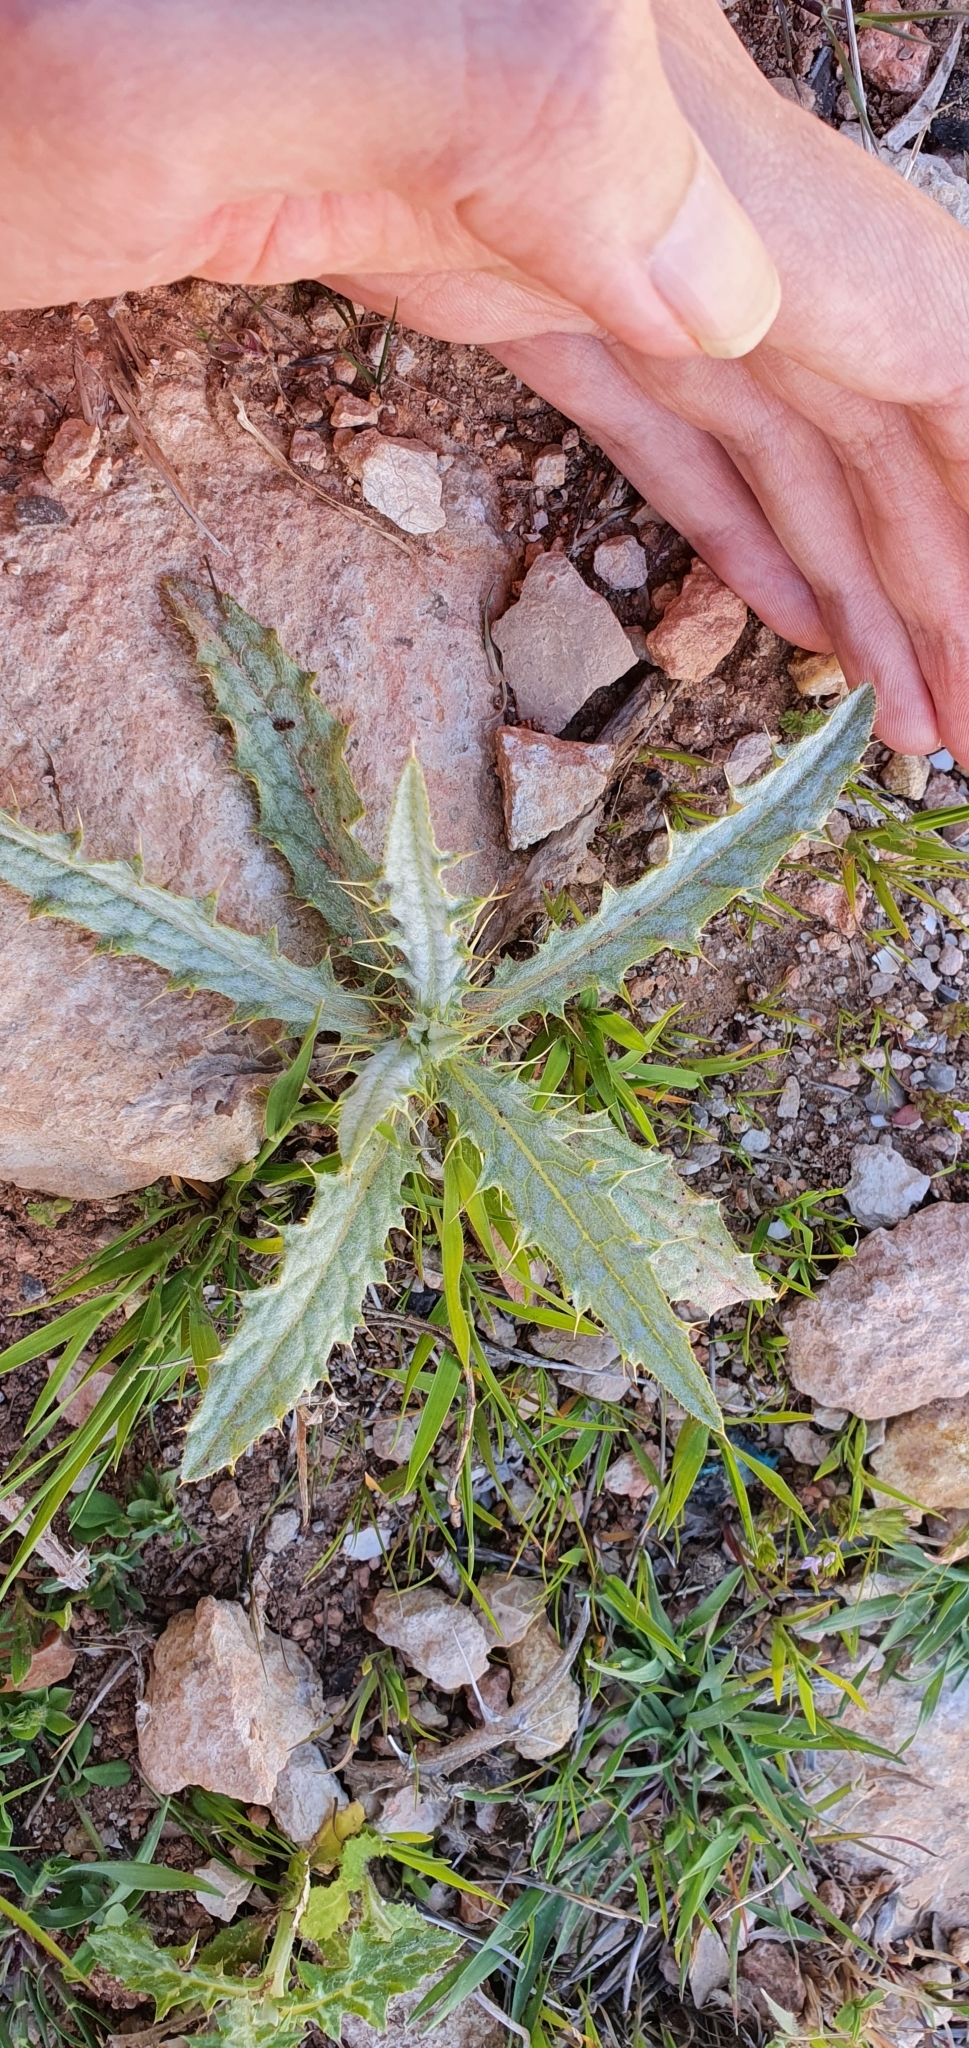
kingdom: Plantae
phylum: Tracheophyta
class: Magnoliopsida
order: Asterales
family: Asteraceae
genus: Picnomon
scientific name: Picnomon acarna
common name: Soldier thistle
